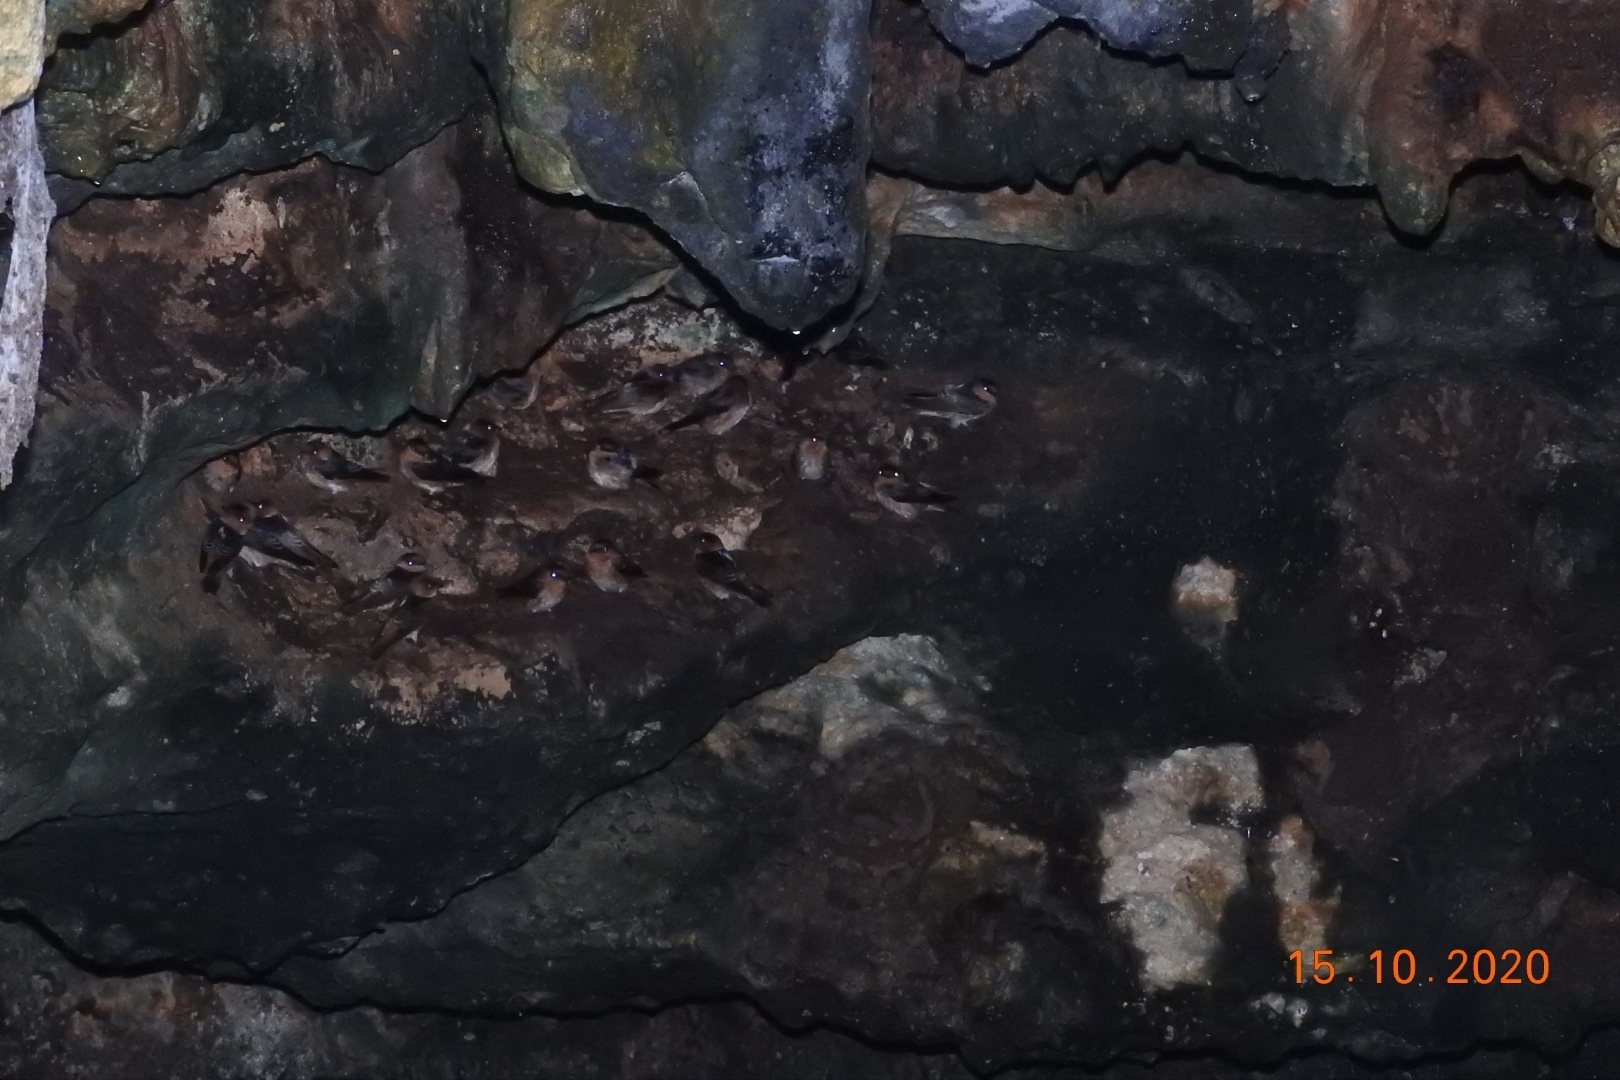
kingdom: Animalia
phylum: Chordata
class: Aves
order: Passeriformes
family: Hirundinidae
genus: Petrochelidon
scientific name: Petrochelidon fulva
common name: Cave swallow
